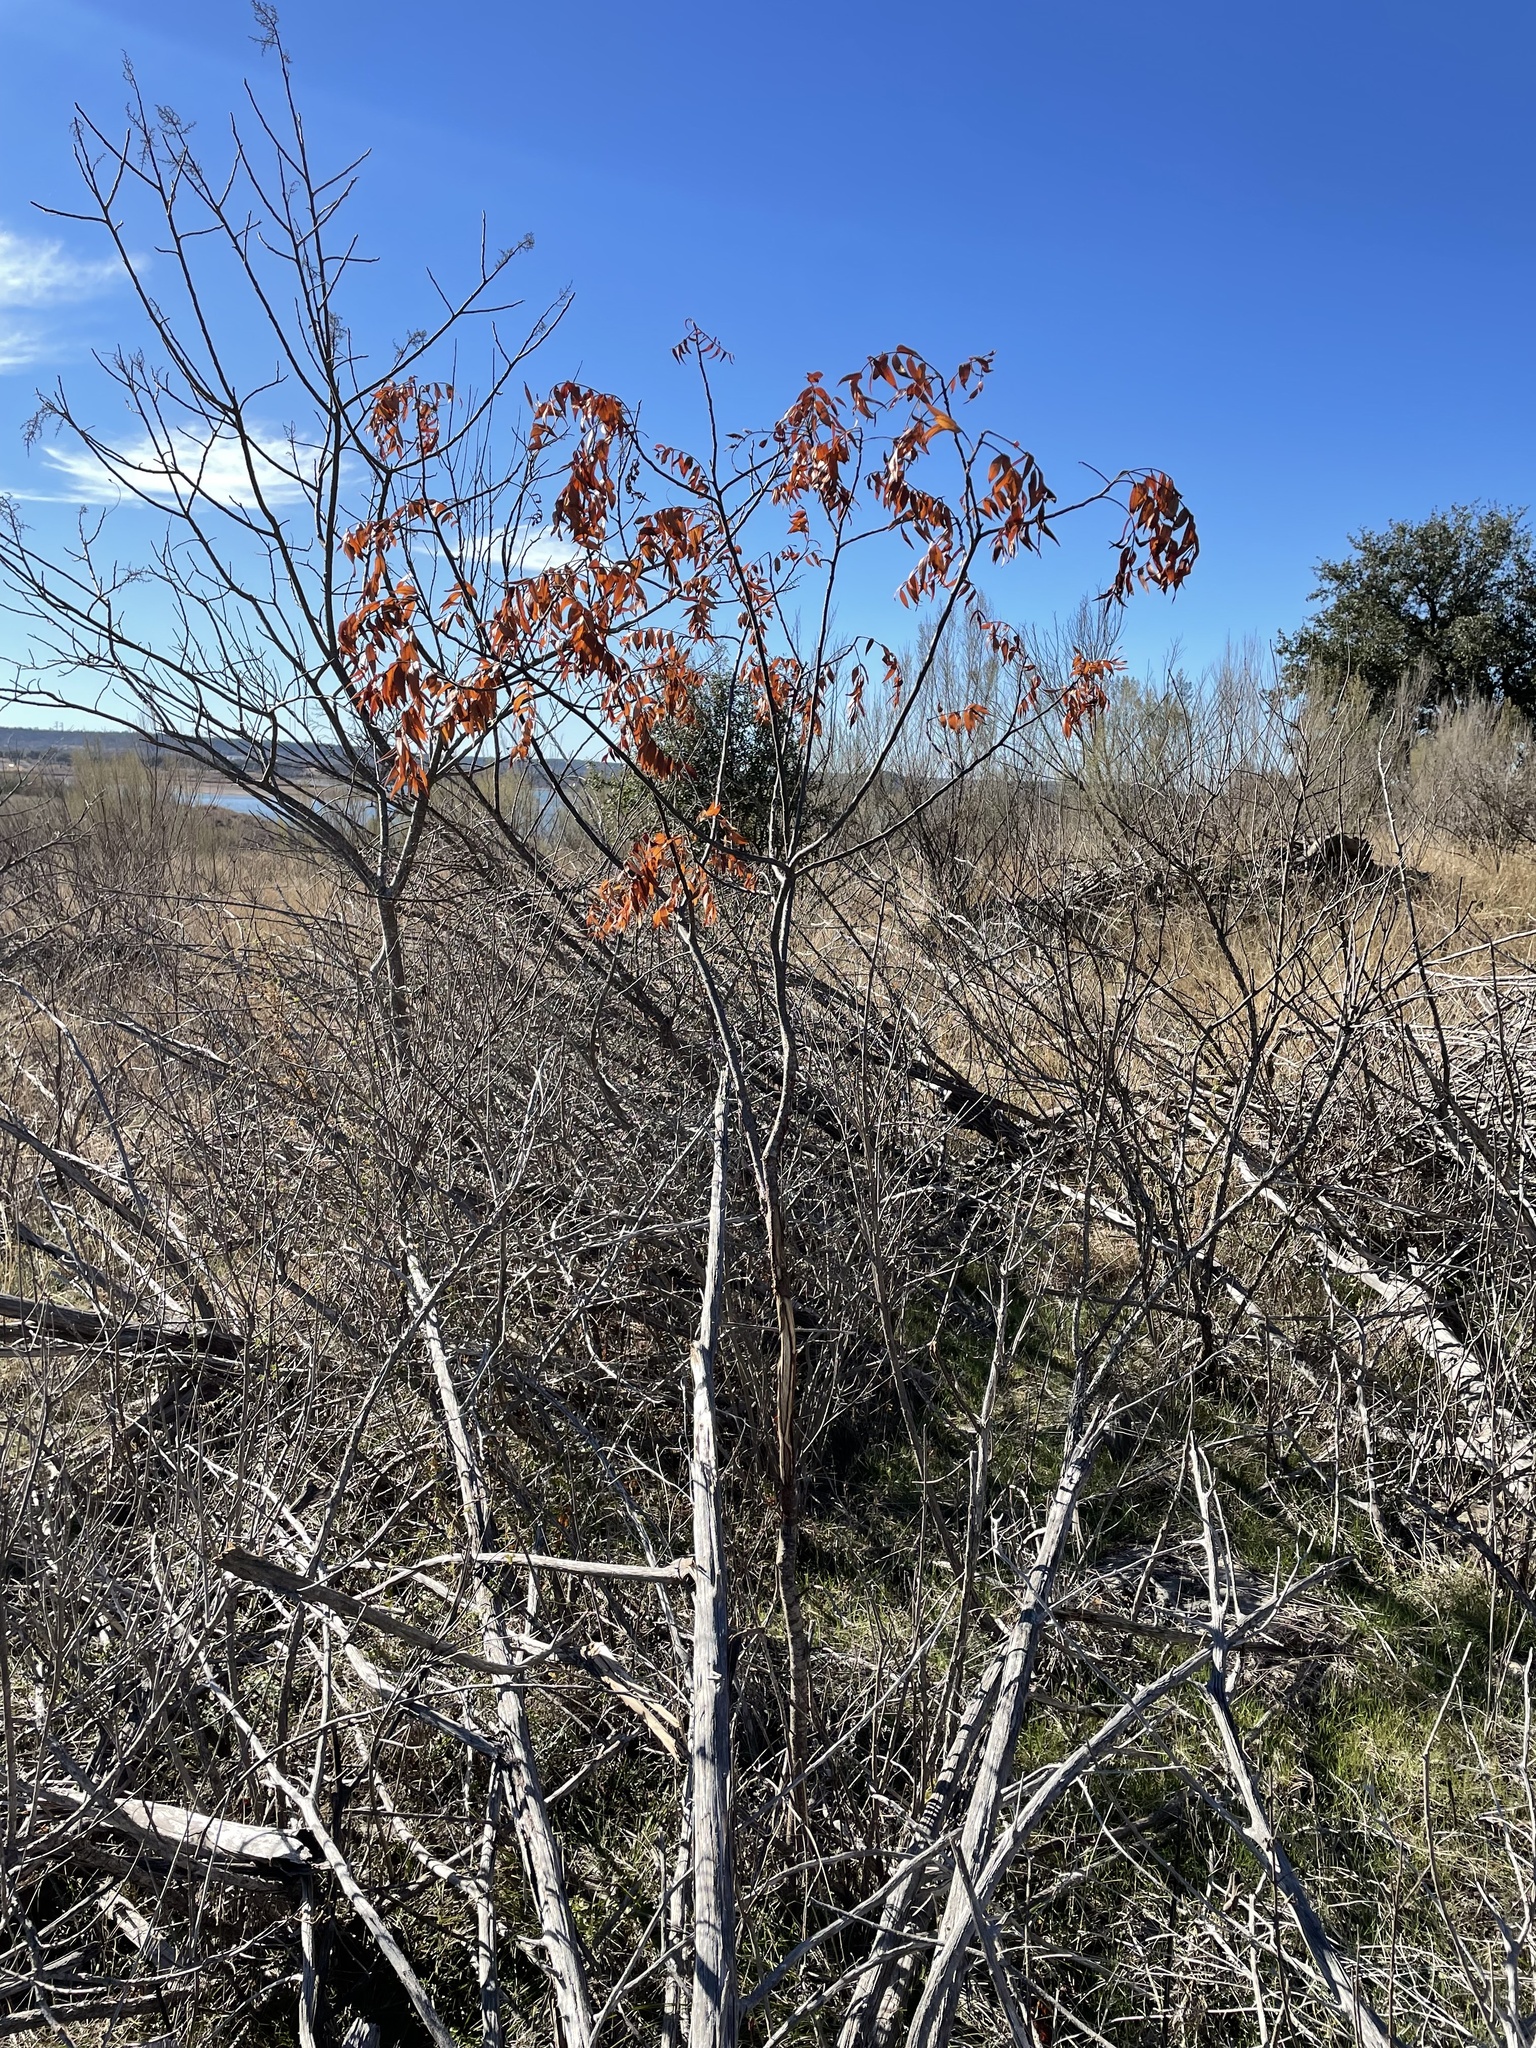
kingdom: Plantae
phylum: Tracheophyta
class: Magnoliopsida
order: Sapindales
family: Anacardiaceae
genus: Rhus
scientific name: Rhus lanceolata
